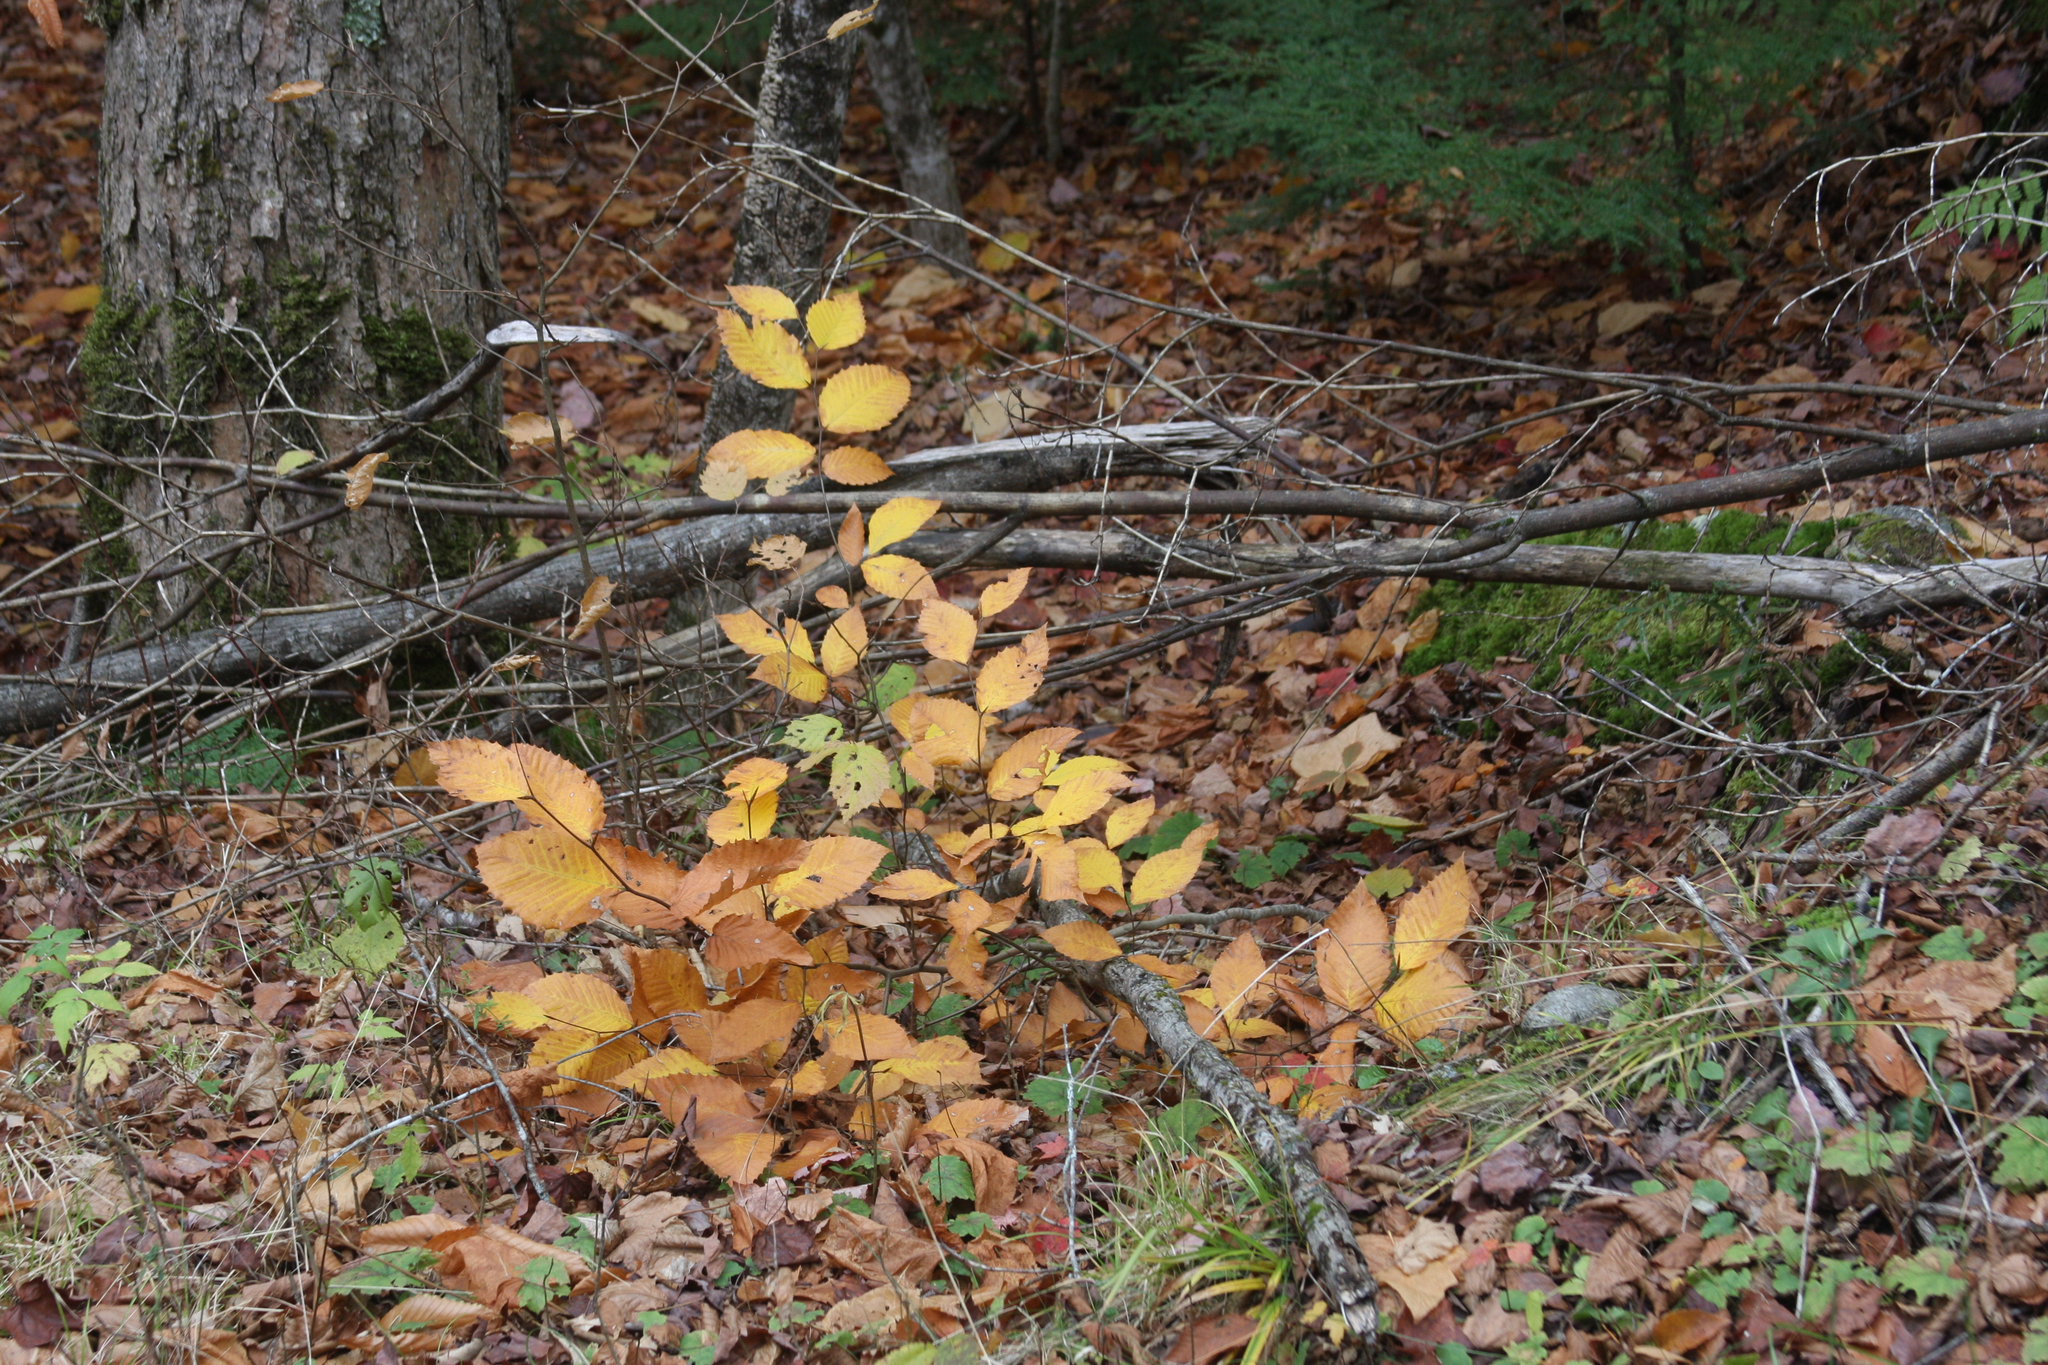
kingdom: Plantae
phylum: Tracheophyta
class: Magnoliopsida
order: Fagales
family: Fagaceae
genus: Fagus
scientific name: Fagus grandifolia
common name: American beech
